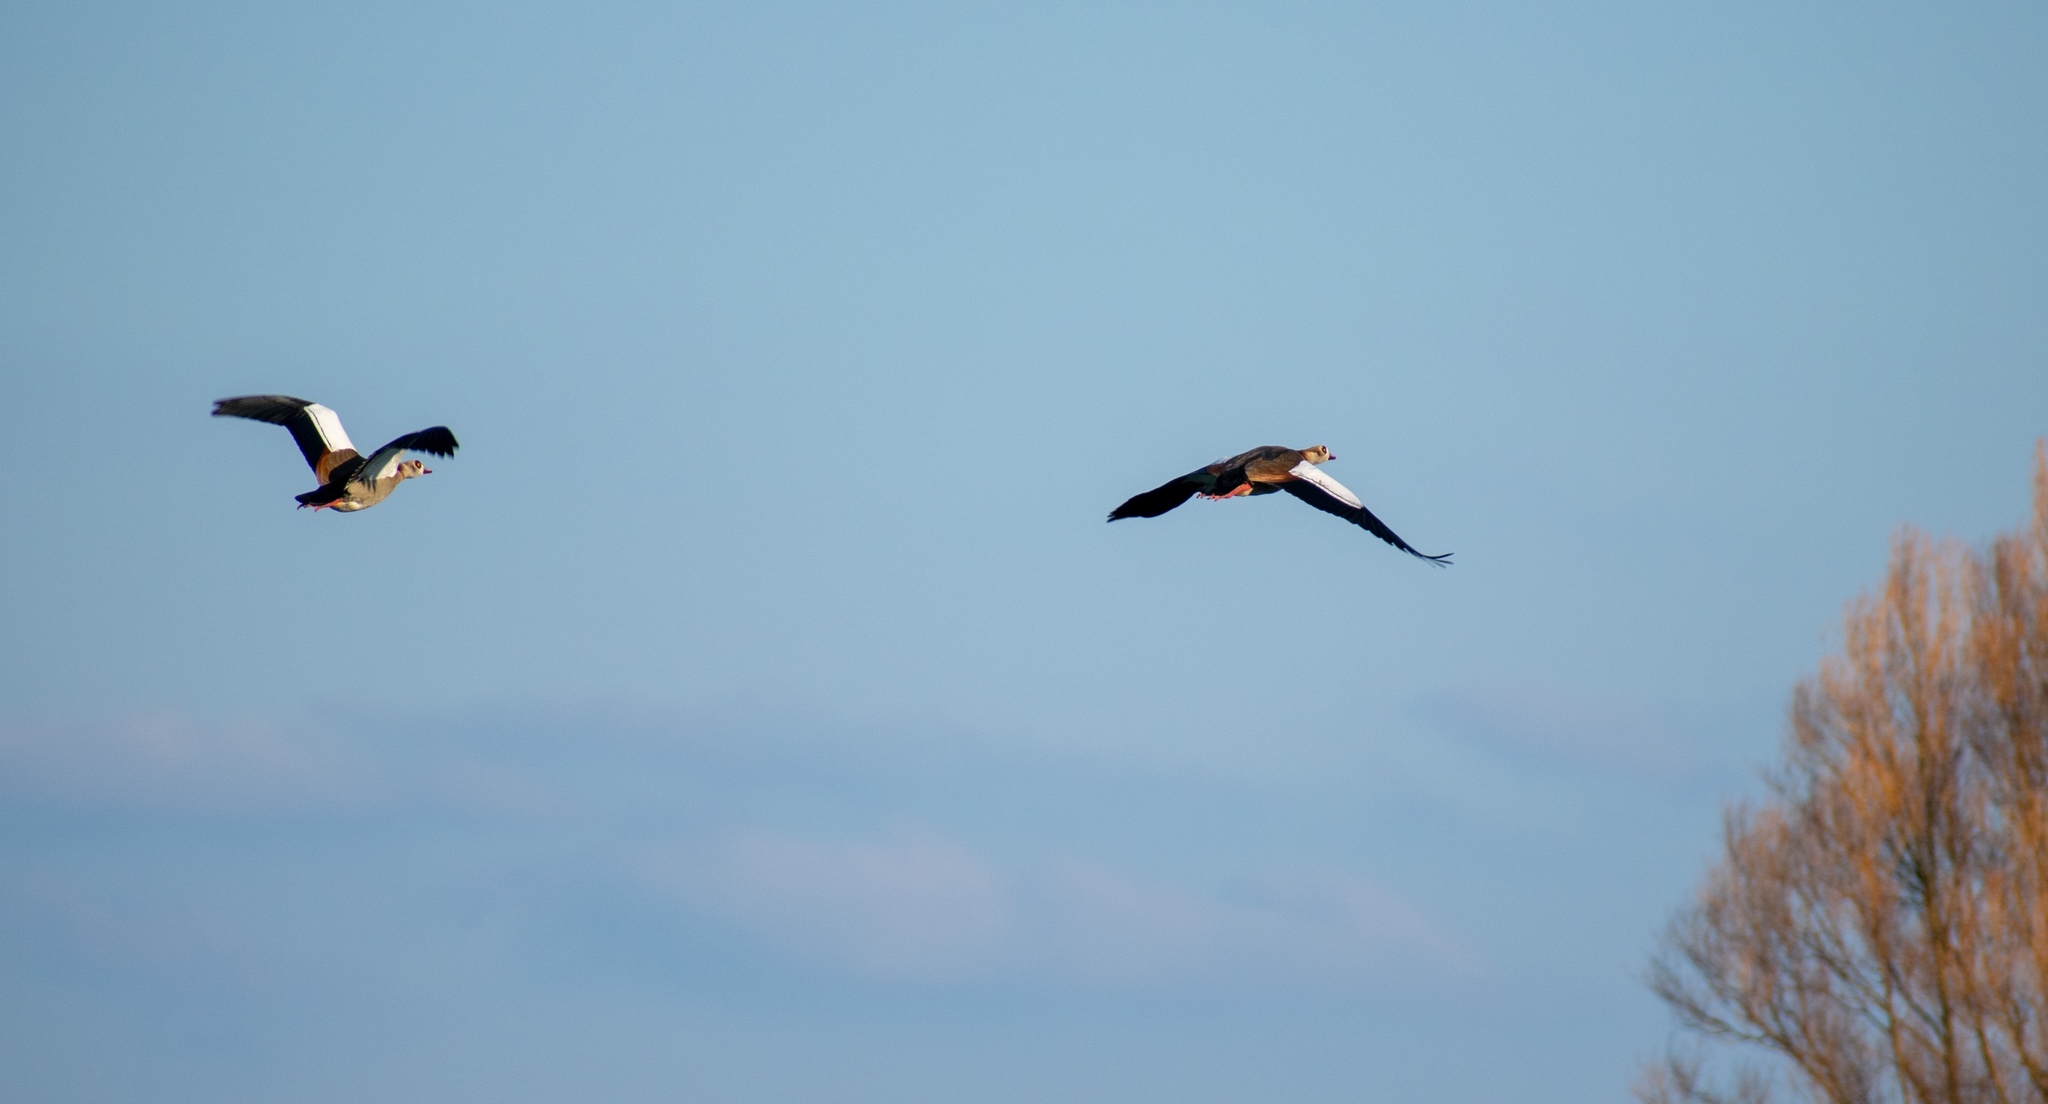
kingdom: Animalia
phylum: Chordata
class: Aves
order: Anseriformes
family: Anatidae
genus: Alopochen
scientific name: Alopochen aegyptiaca
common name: Egyptian goose
